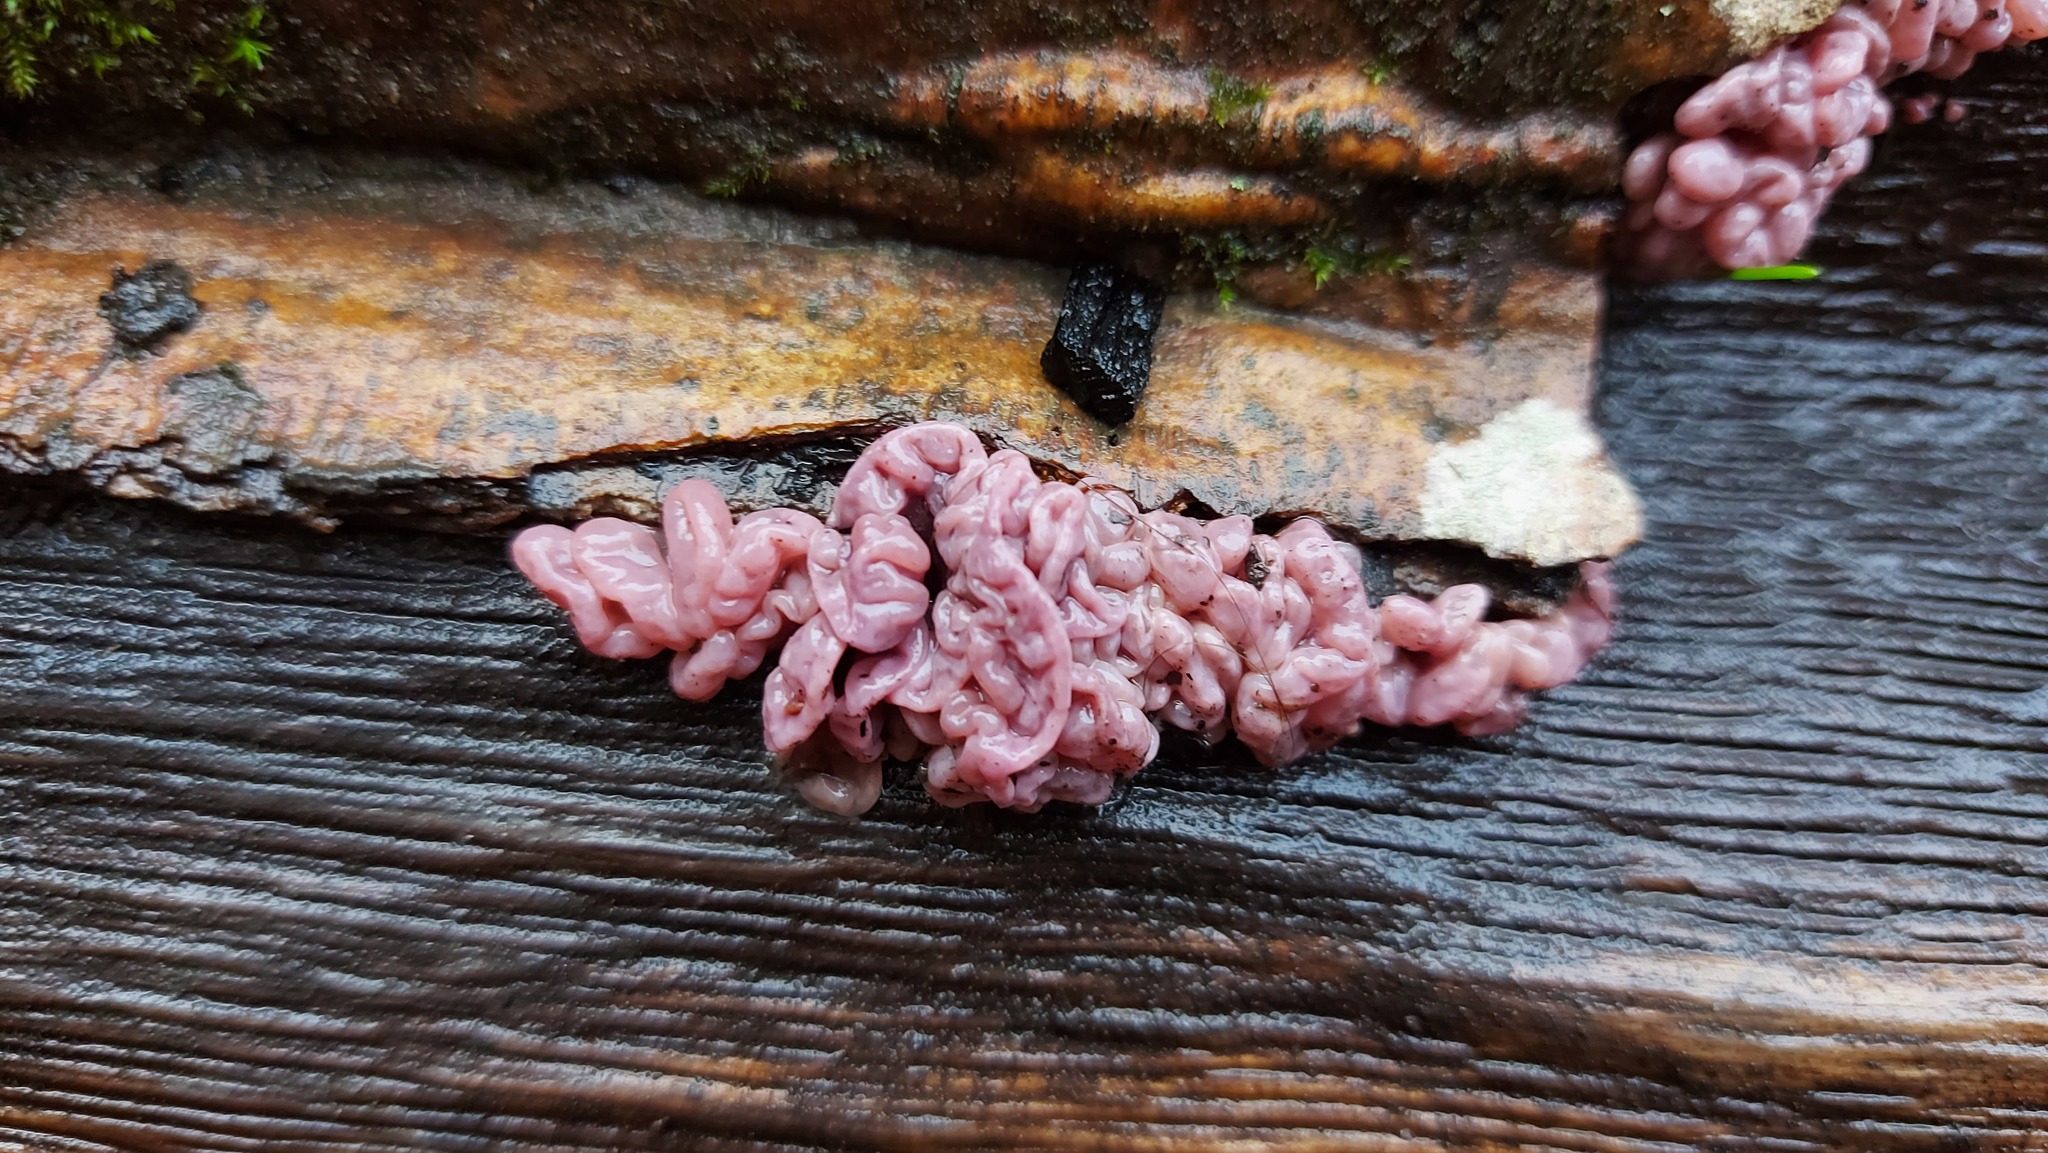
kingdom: Fungi
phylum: Ascomycota
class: Leotiomycetes
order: Helotiales
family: Gelatinodiscaceae
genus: Ascocoryne
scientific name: Ascocoryne sarcoides
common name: Purple jellydisc
